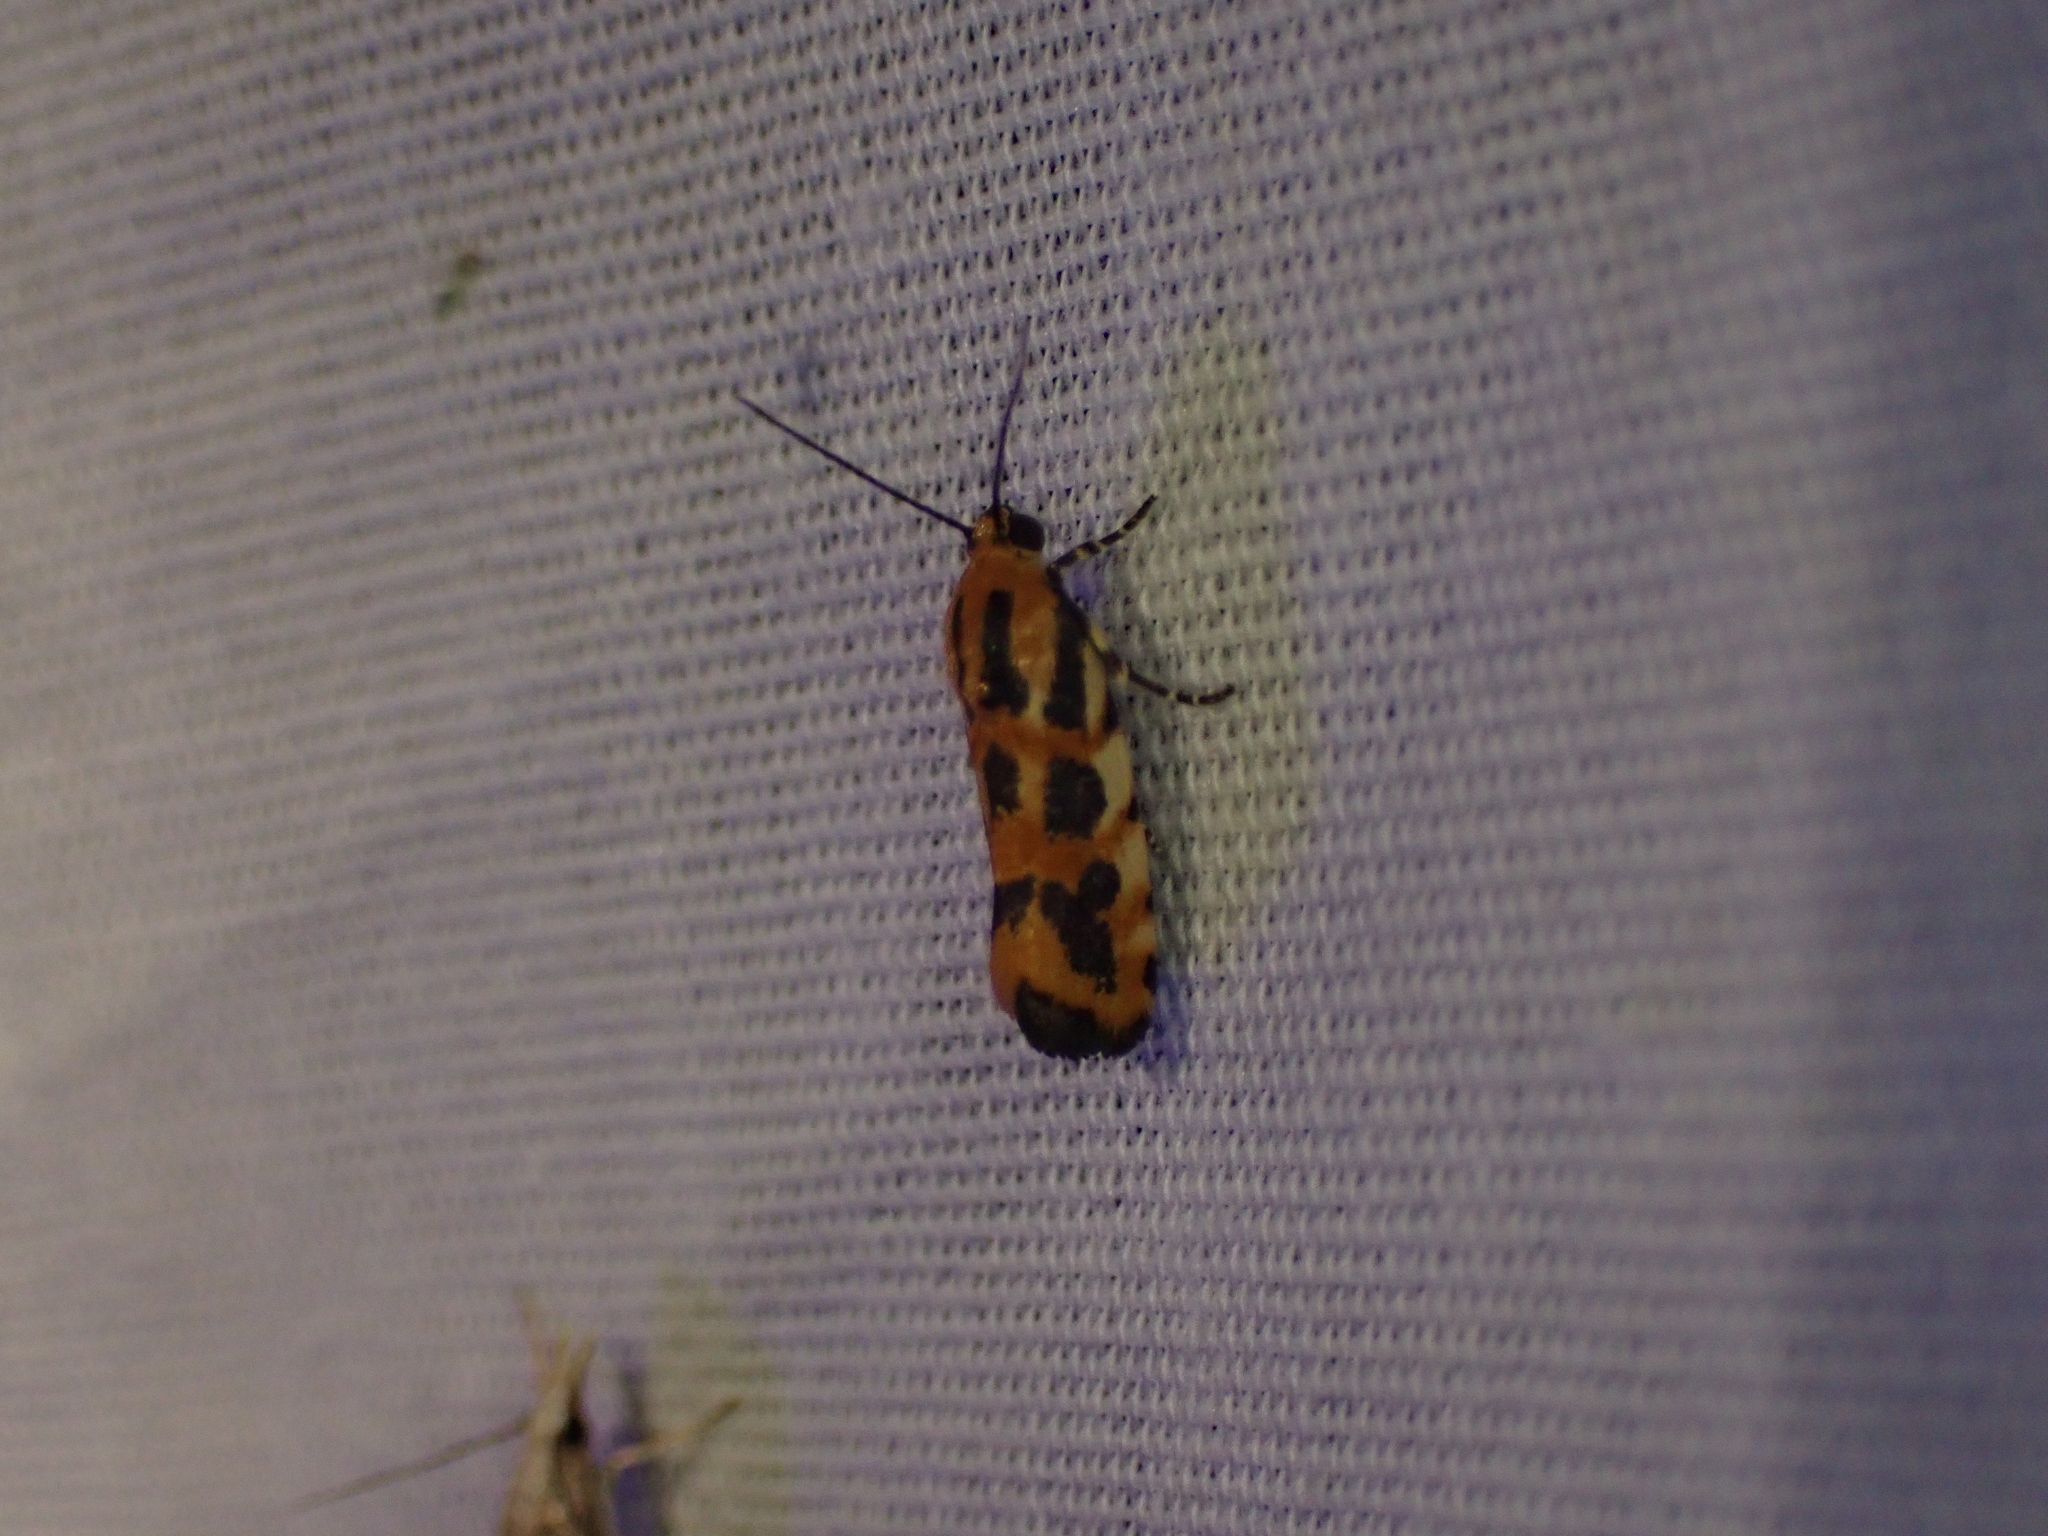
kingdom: Animalia
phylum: Arthropoda
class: Insecta
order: Lepidoptera
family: Noctuidae
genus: Acontia
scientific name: Acontia leo
